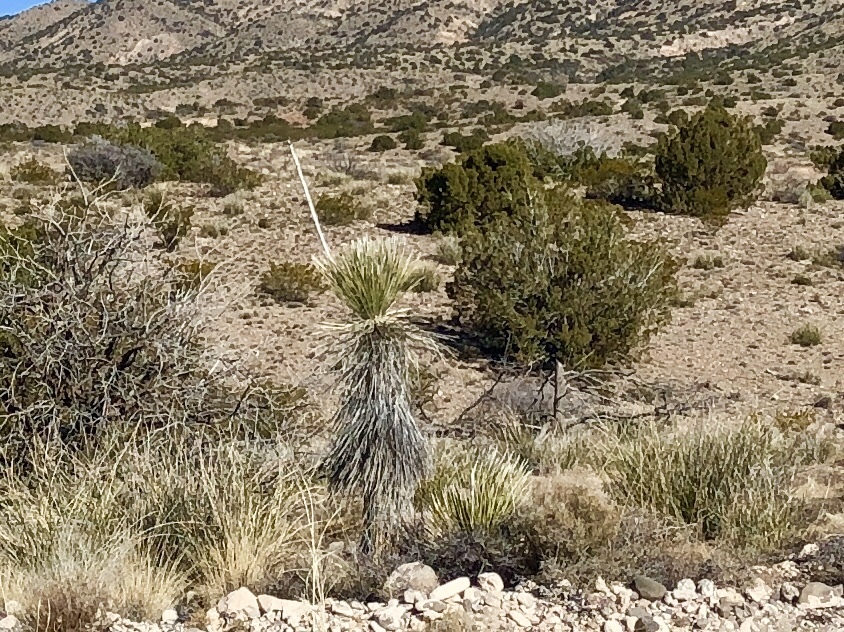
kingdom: Plantae
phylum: Tracheophyta
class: Liliopsida
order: Asparagales
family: Asparagaceae
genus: Yucca
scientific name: Yucca elata
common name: Palmella
